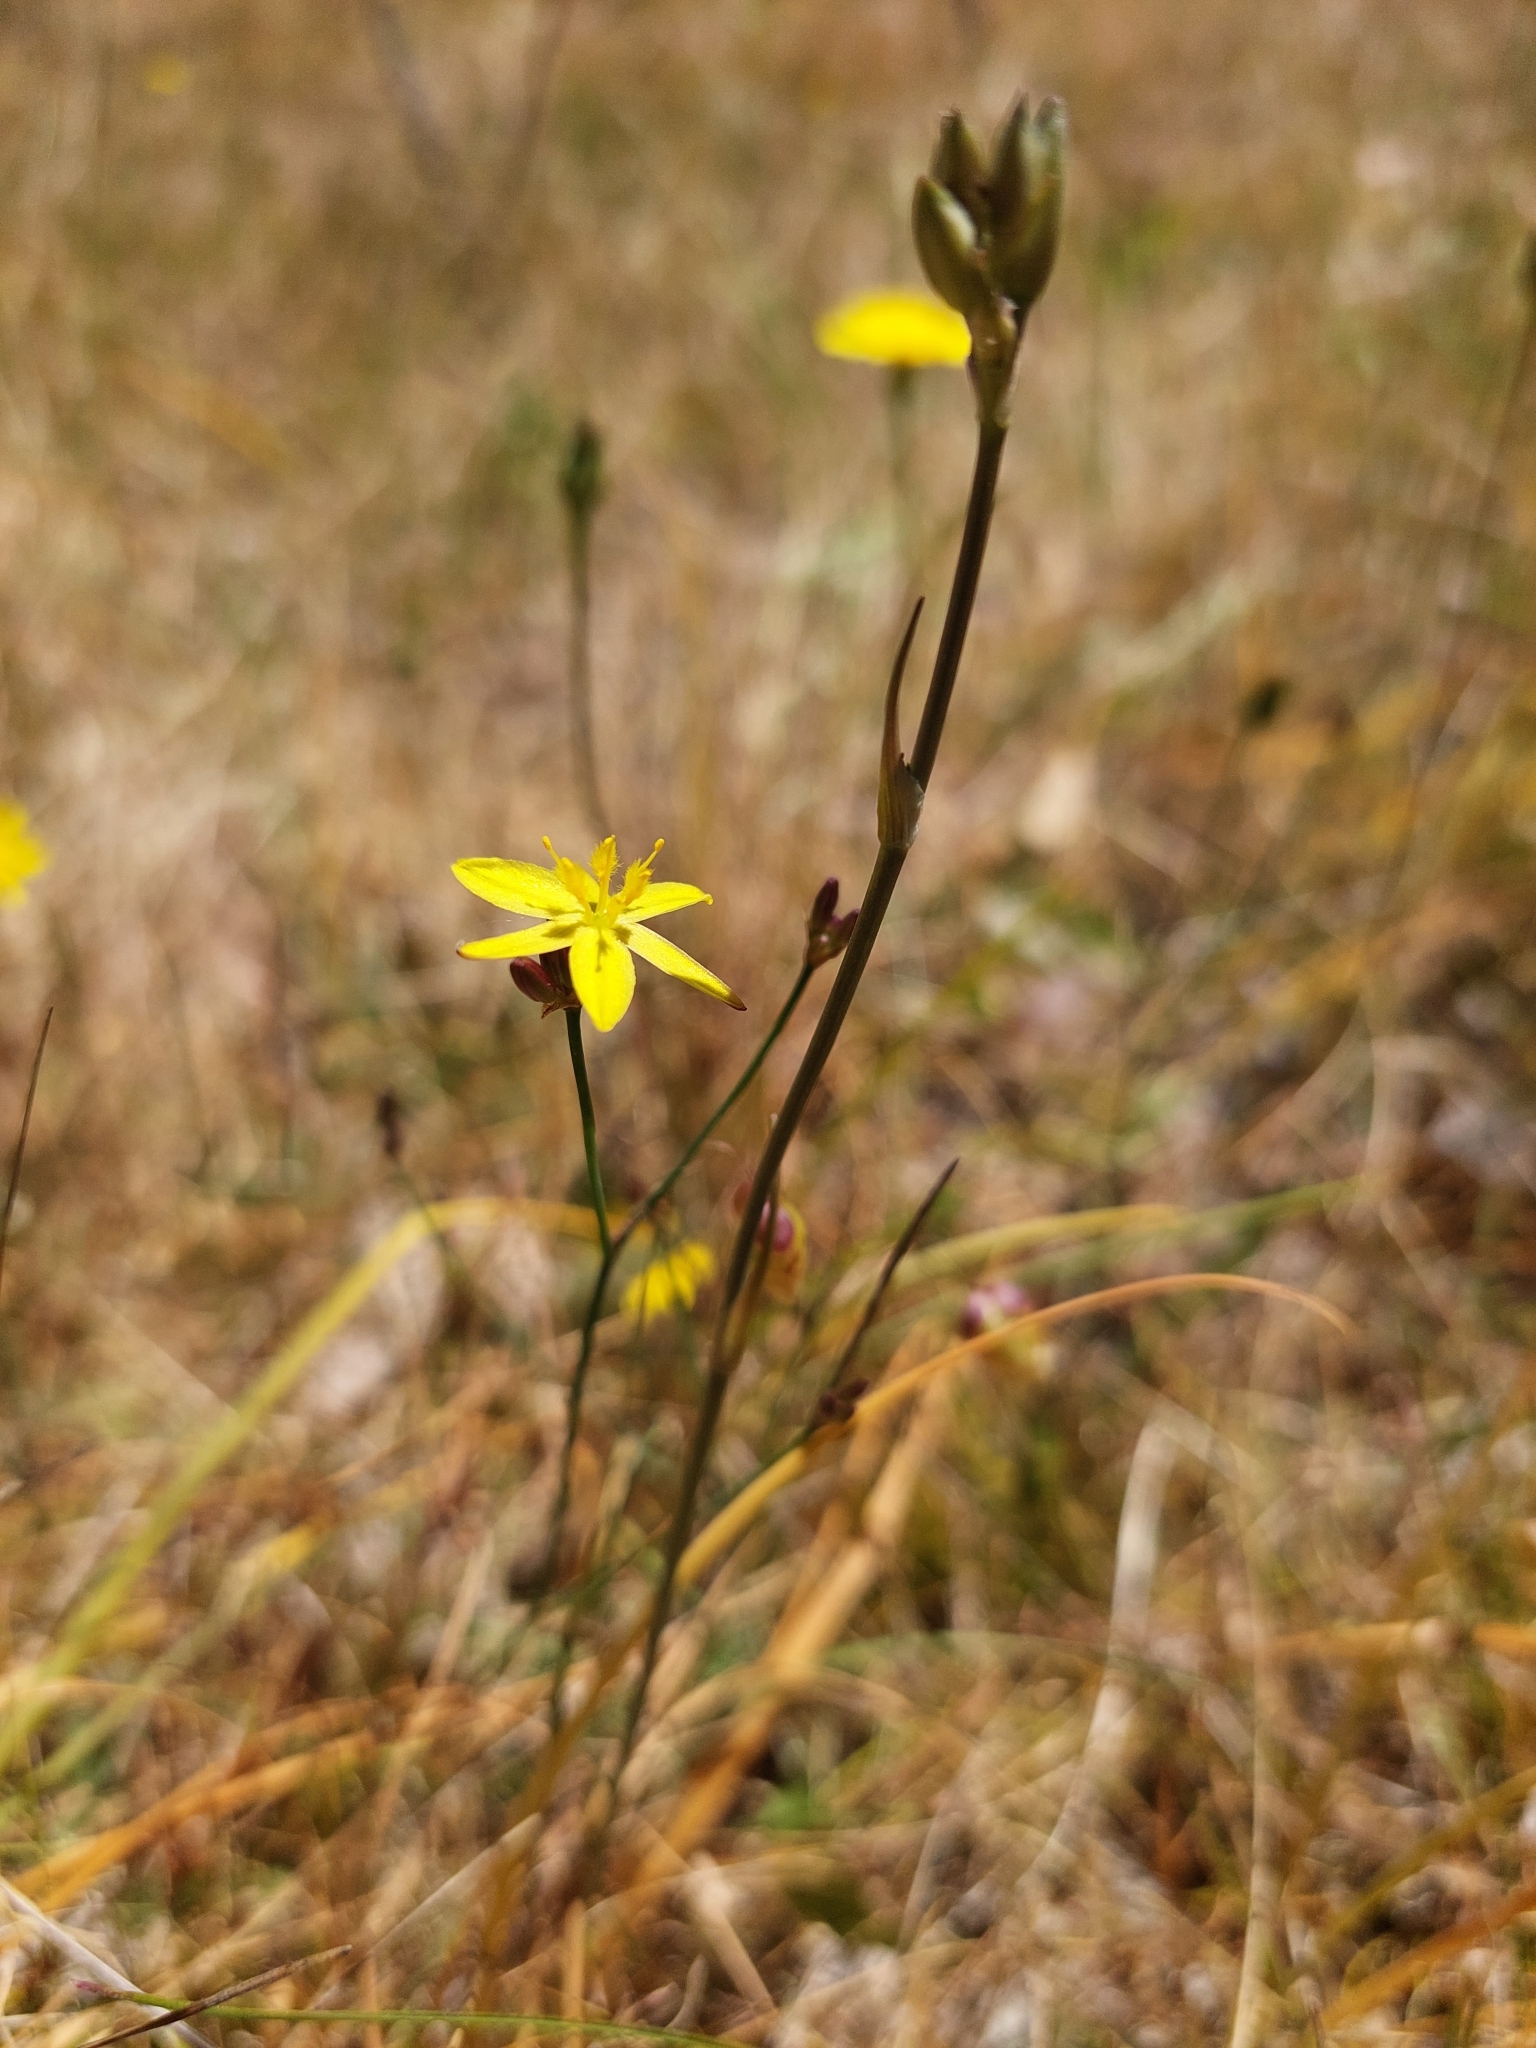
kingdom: Plantae
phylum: Tracheophyta
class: Liliopsida
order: Asparagales
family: Asphodelaceae
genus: Tricoryne
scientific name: Tricoryne elatior
